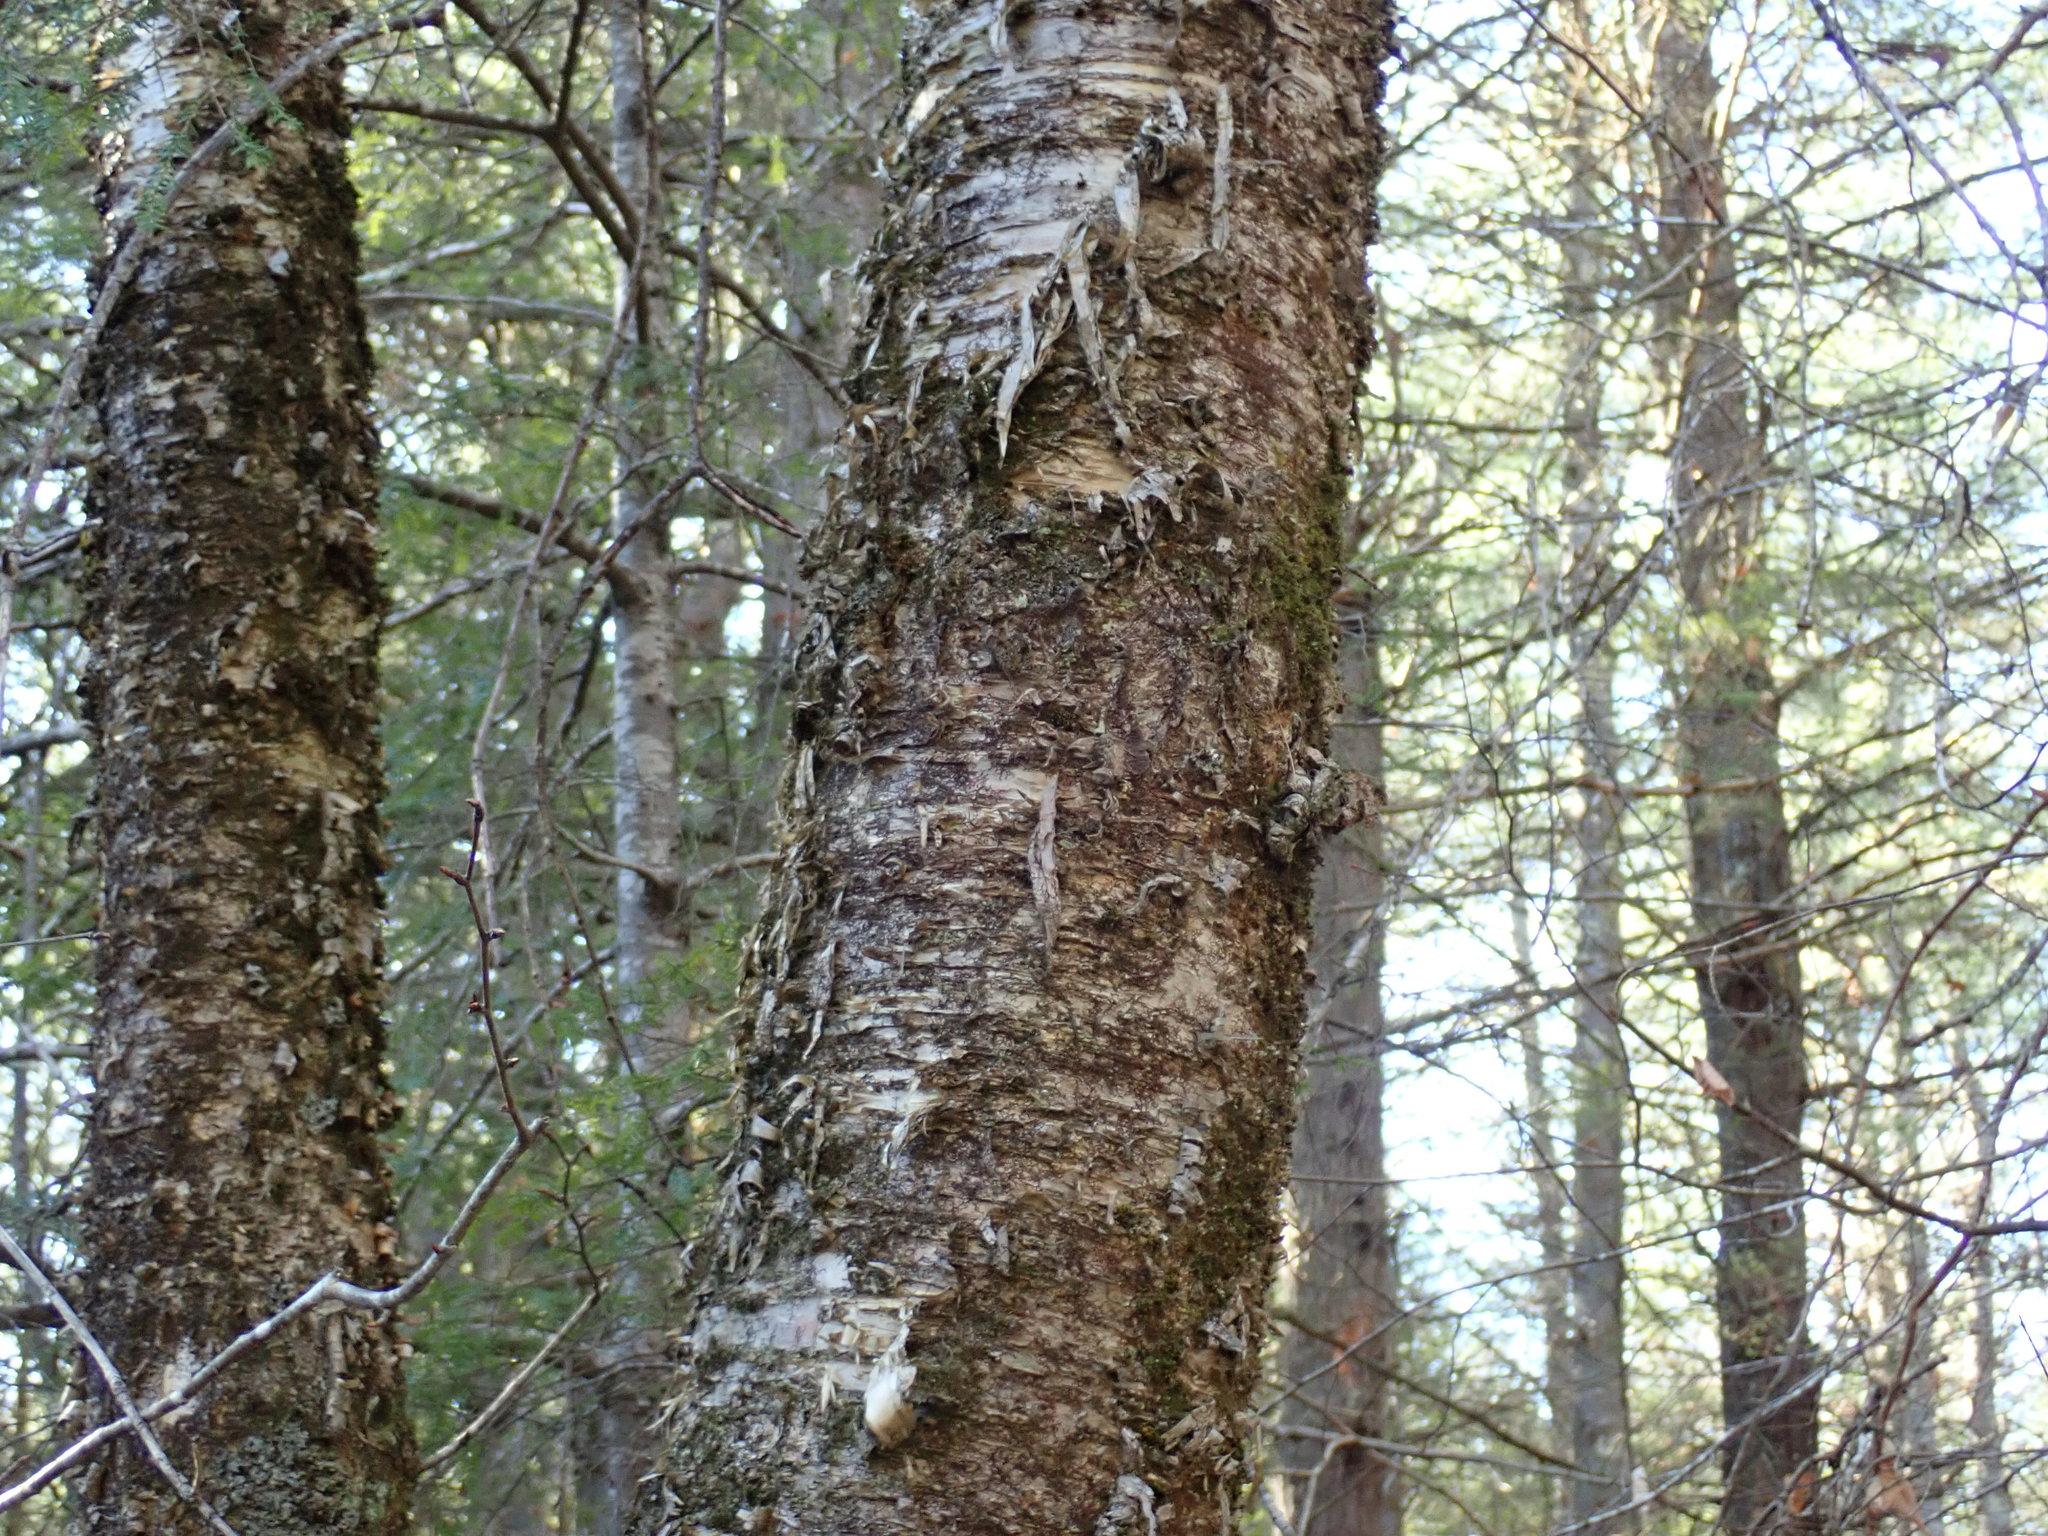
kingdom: Plantae
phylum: Tracheophyta
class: Magnoliopsida
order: Fagales
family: Betulaceae
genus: Betula
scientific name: Betula alleghaniensis
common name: Yellow birch
